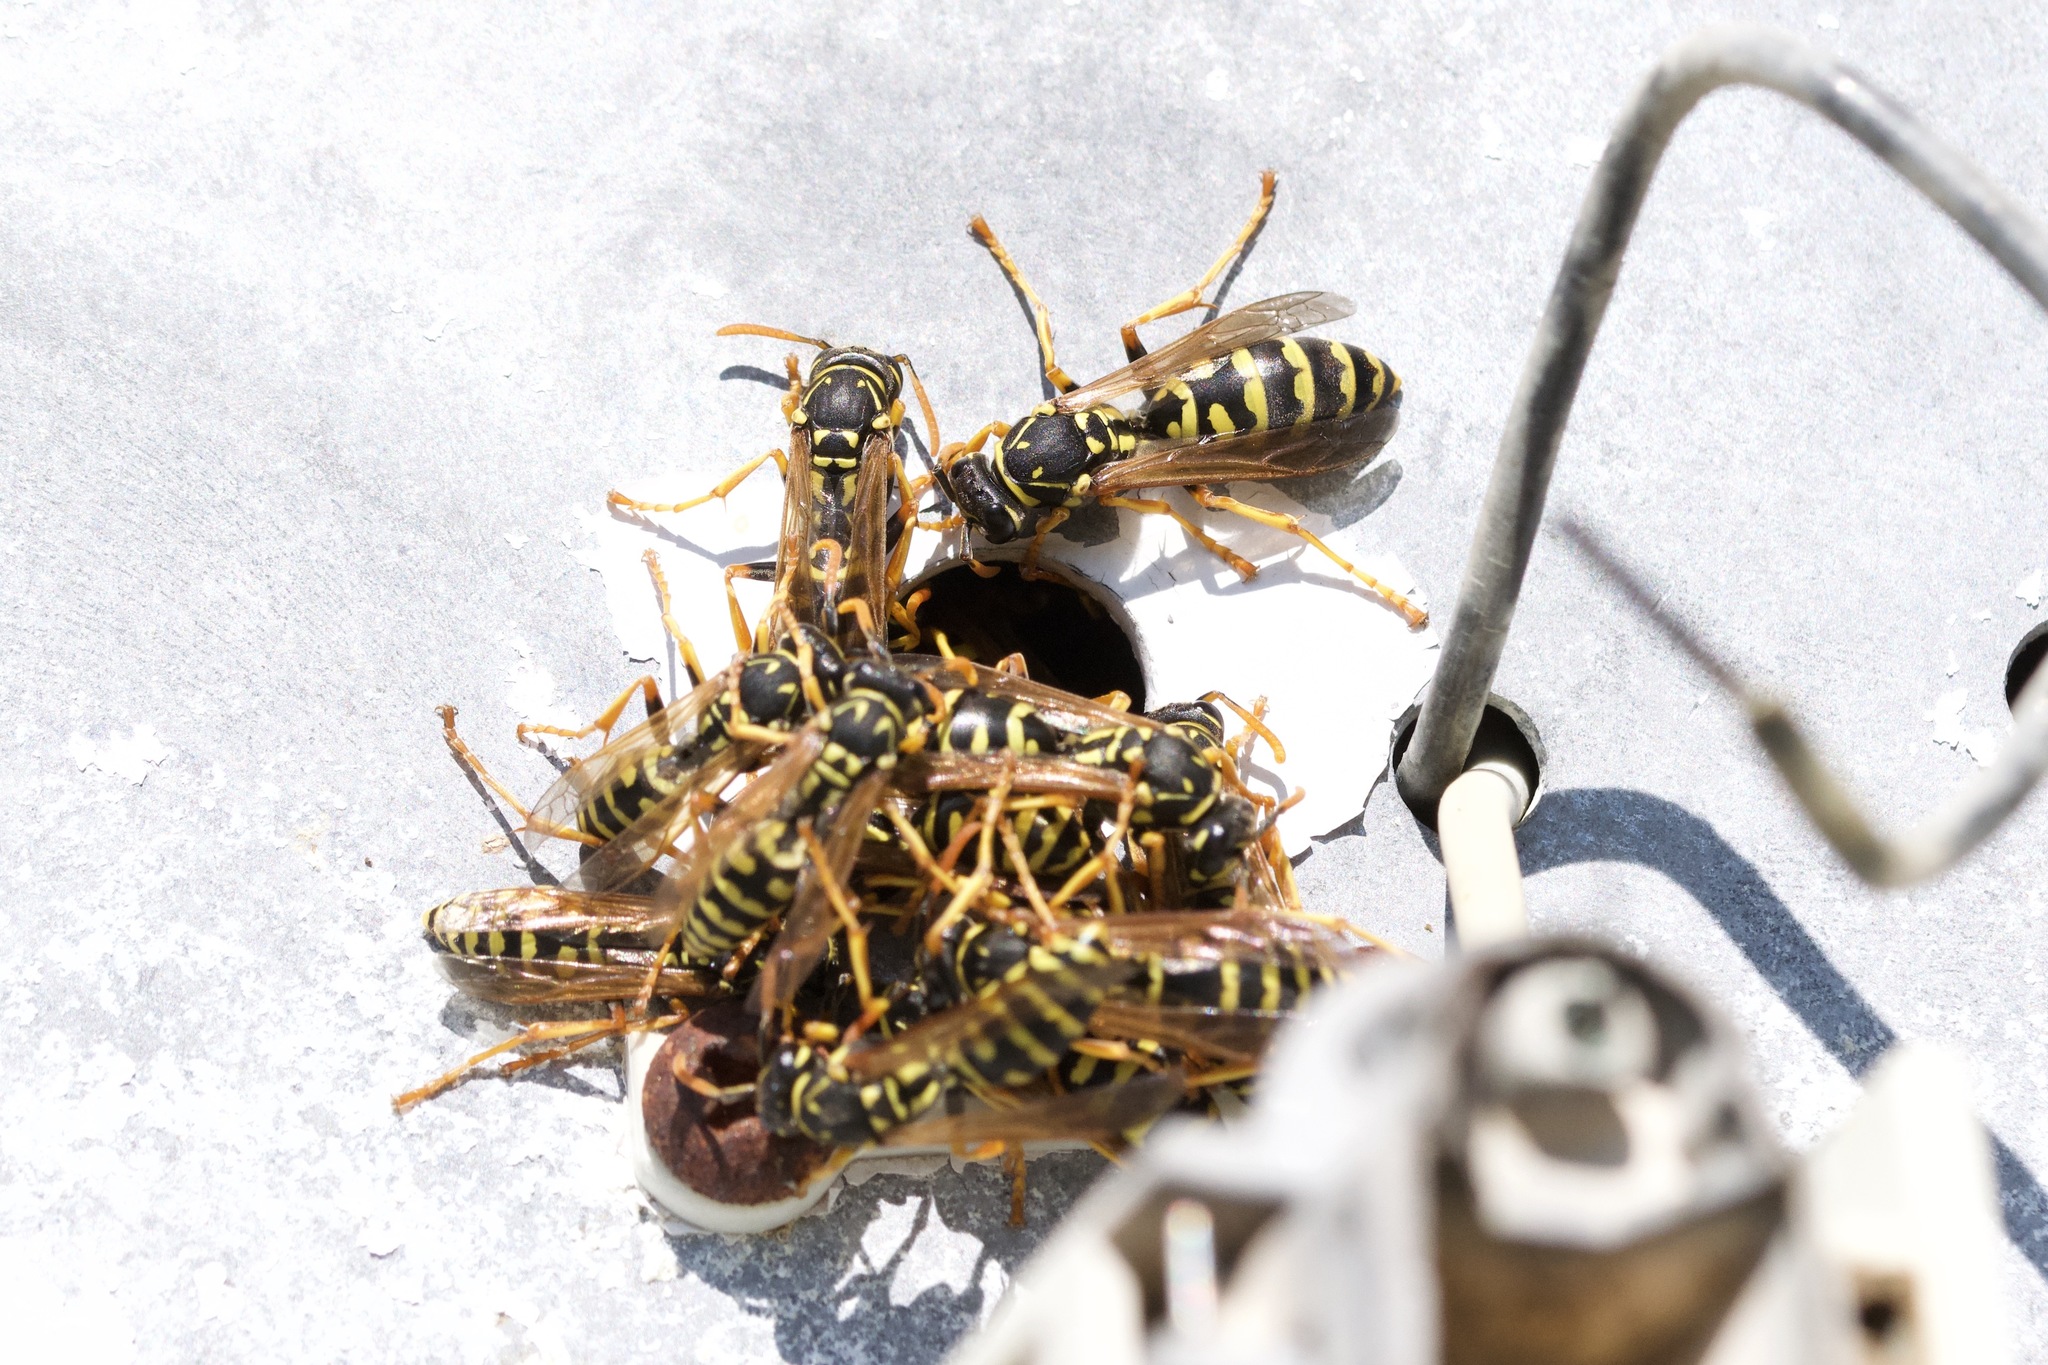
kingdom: Animalia
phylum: Arthropoda
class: Insecta
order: Hymenoptera
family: Eumenidae
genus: Polistes
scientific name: Polistes dominula
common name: Paper wasp
